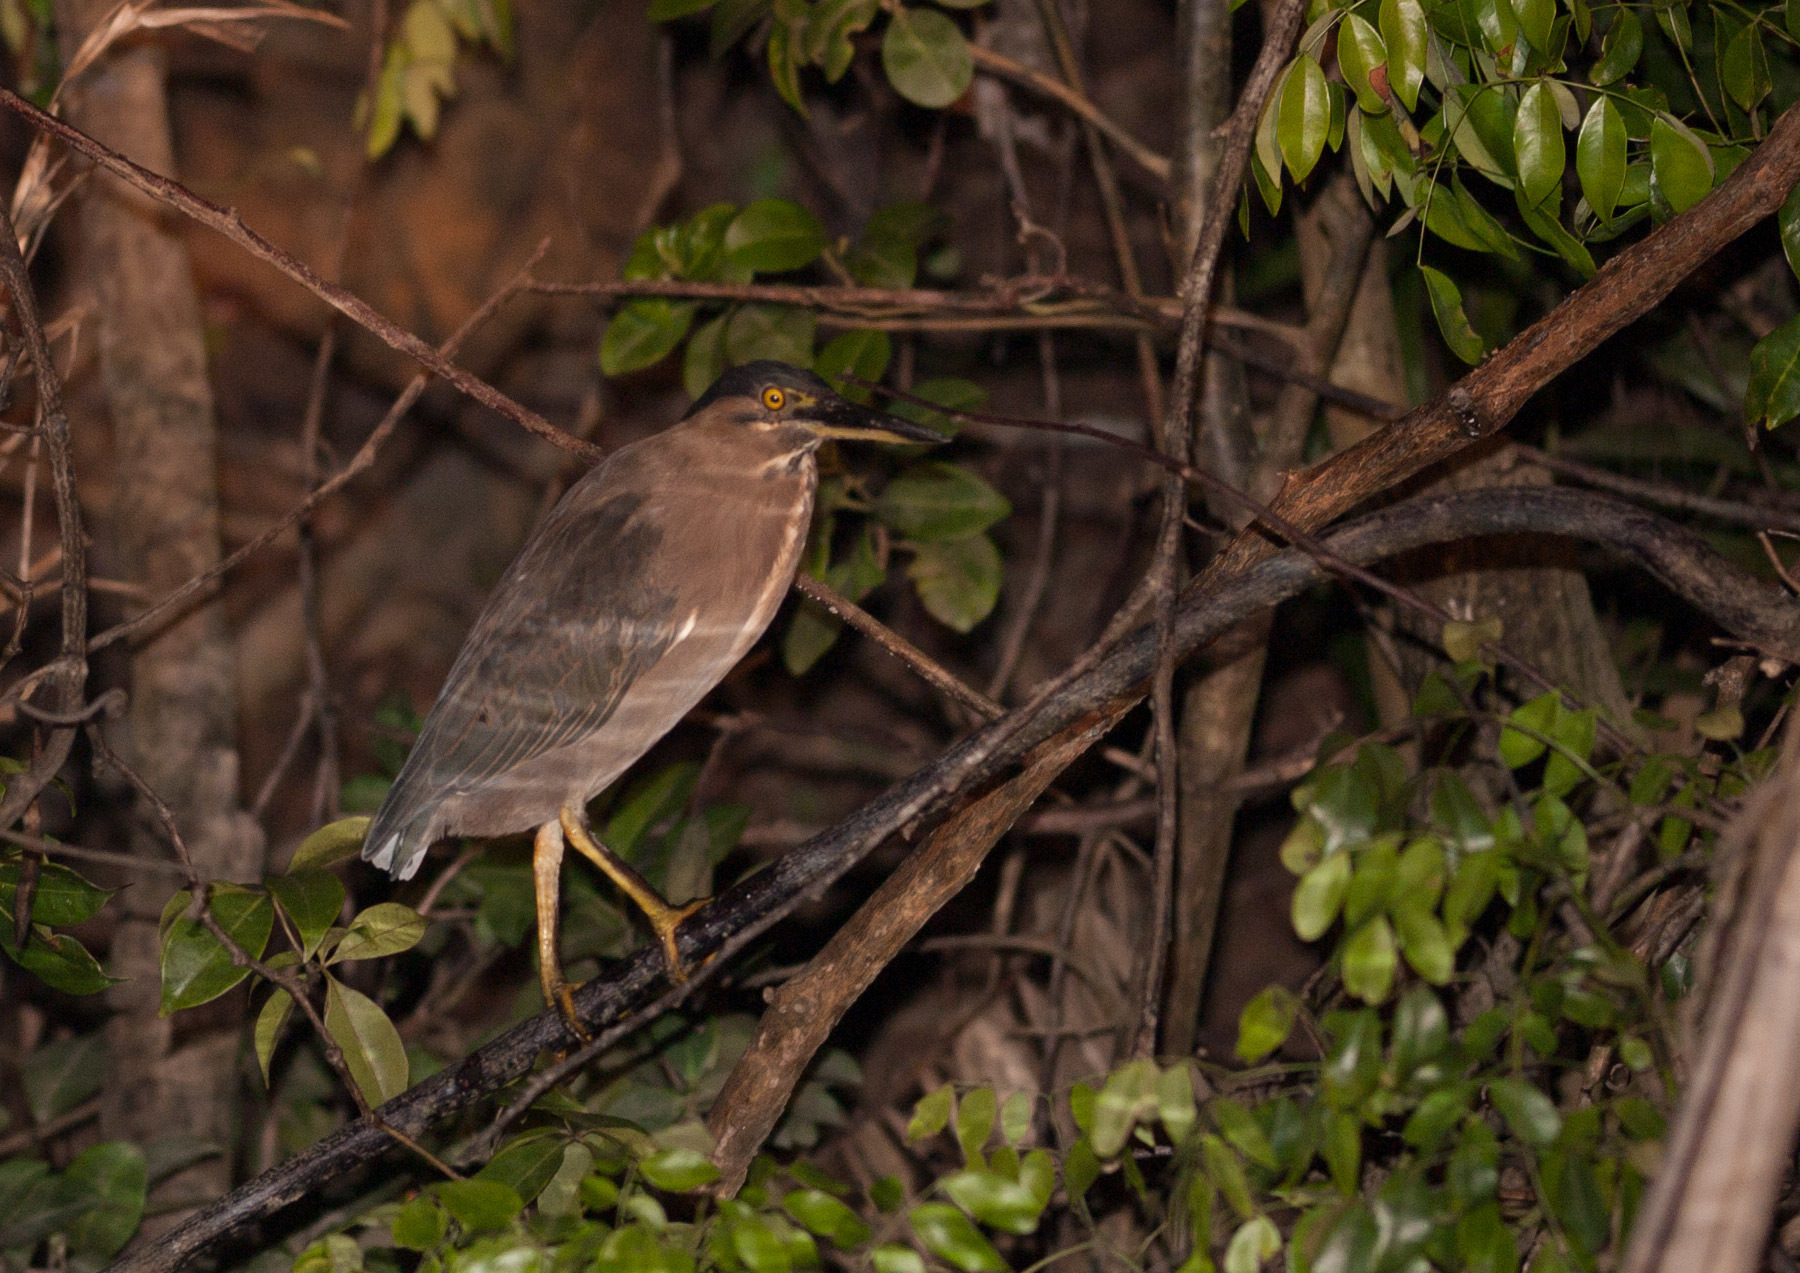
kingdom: Animalia
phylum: Chordata
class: Aves
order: Pelecaniformes
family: Ardeidae
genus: Butorides
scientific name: Butorides striata
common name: Striated heron
